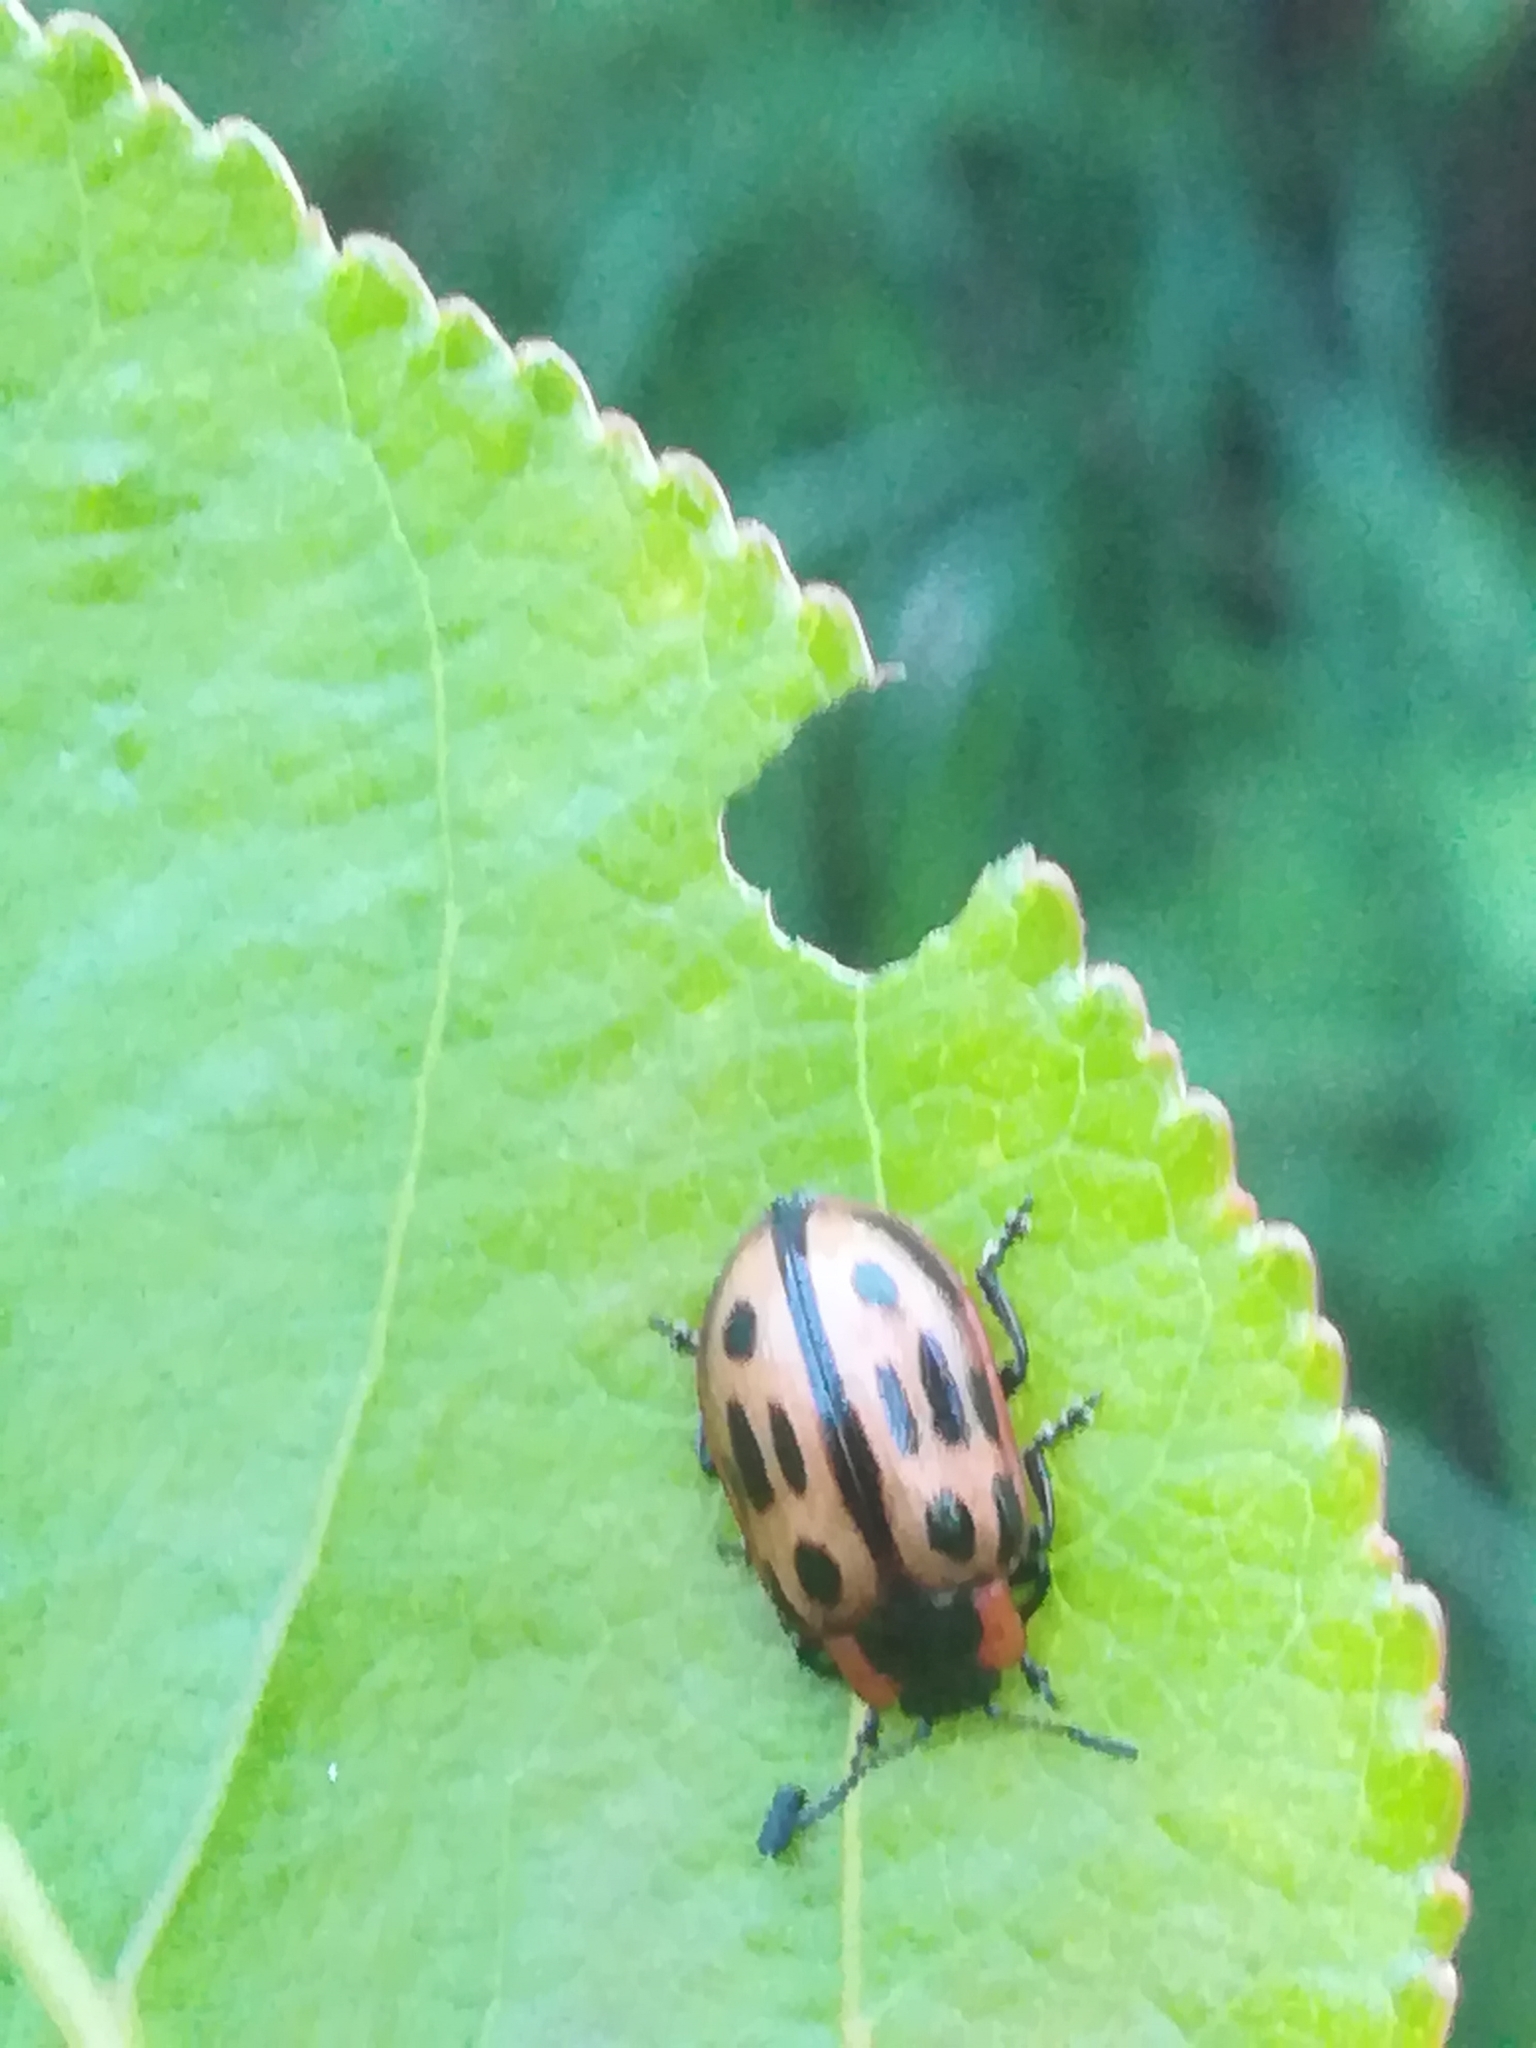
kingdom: Animalia
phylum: Arthropoda
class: Insecta
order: Coleoptera
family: Chrysomelidae
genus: Aethiopocassis
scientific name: Aethiopocassis scripta
